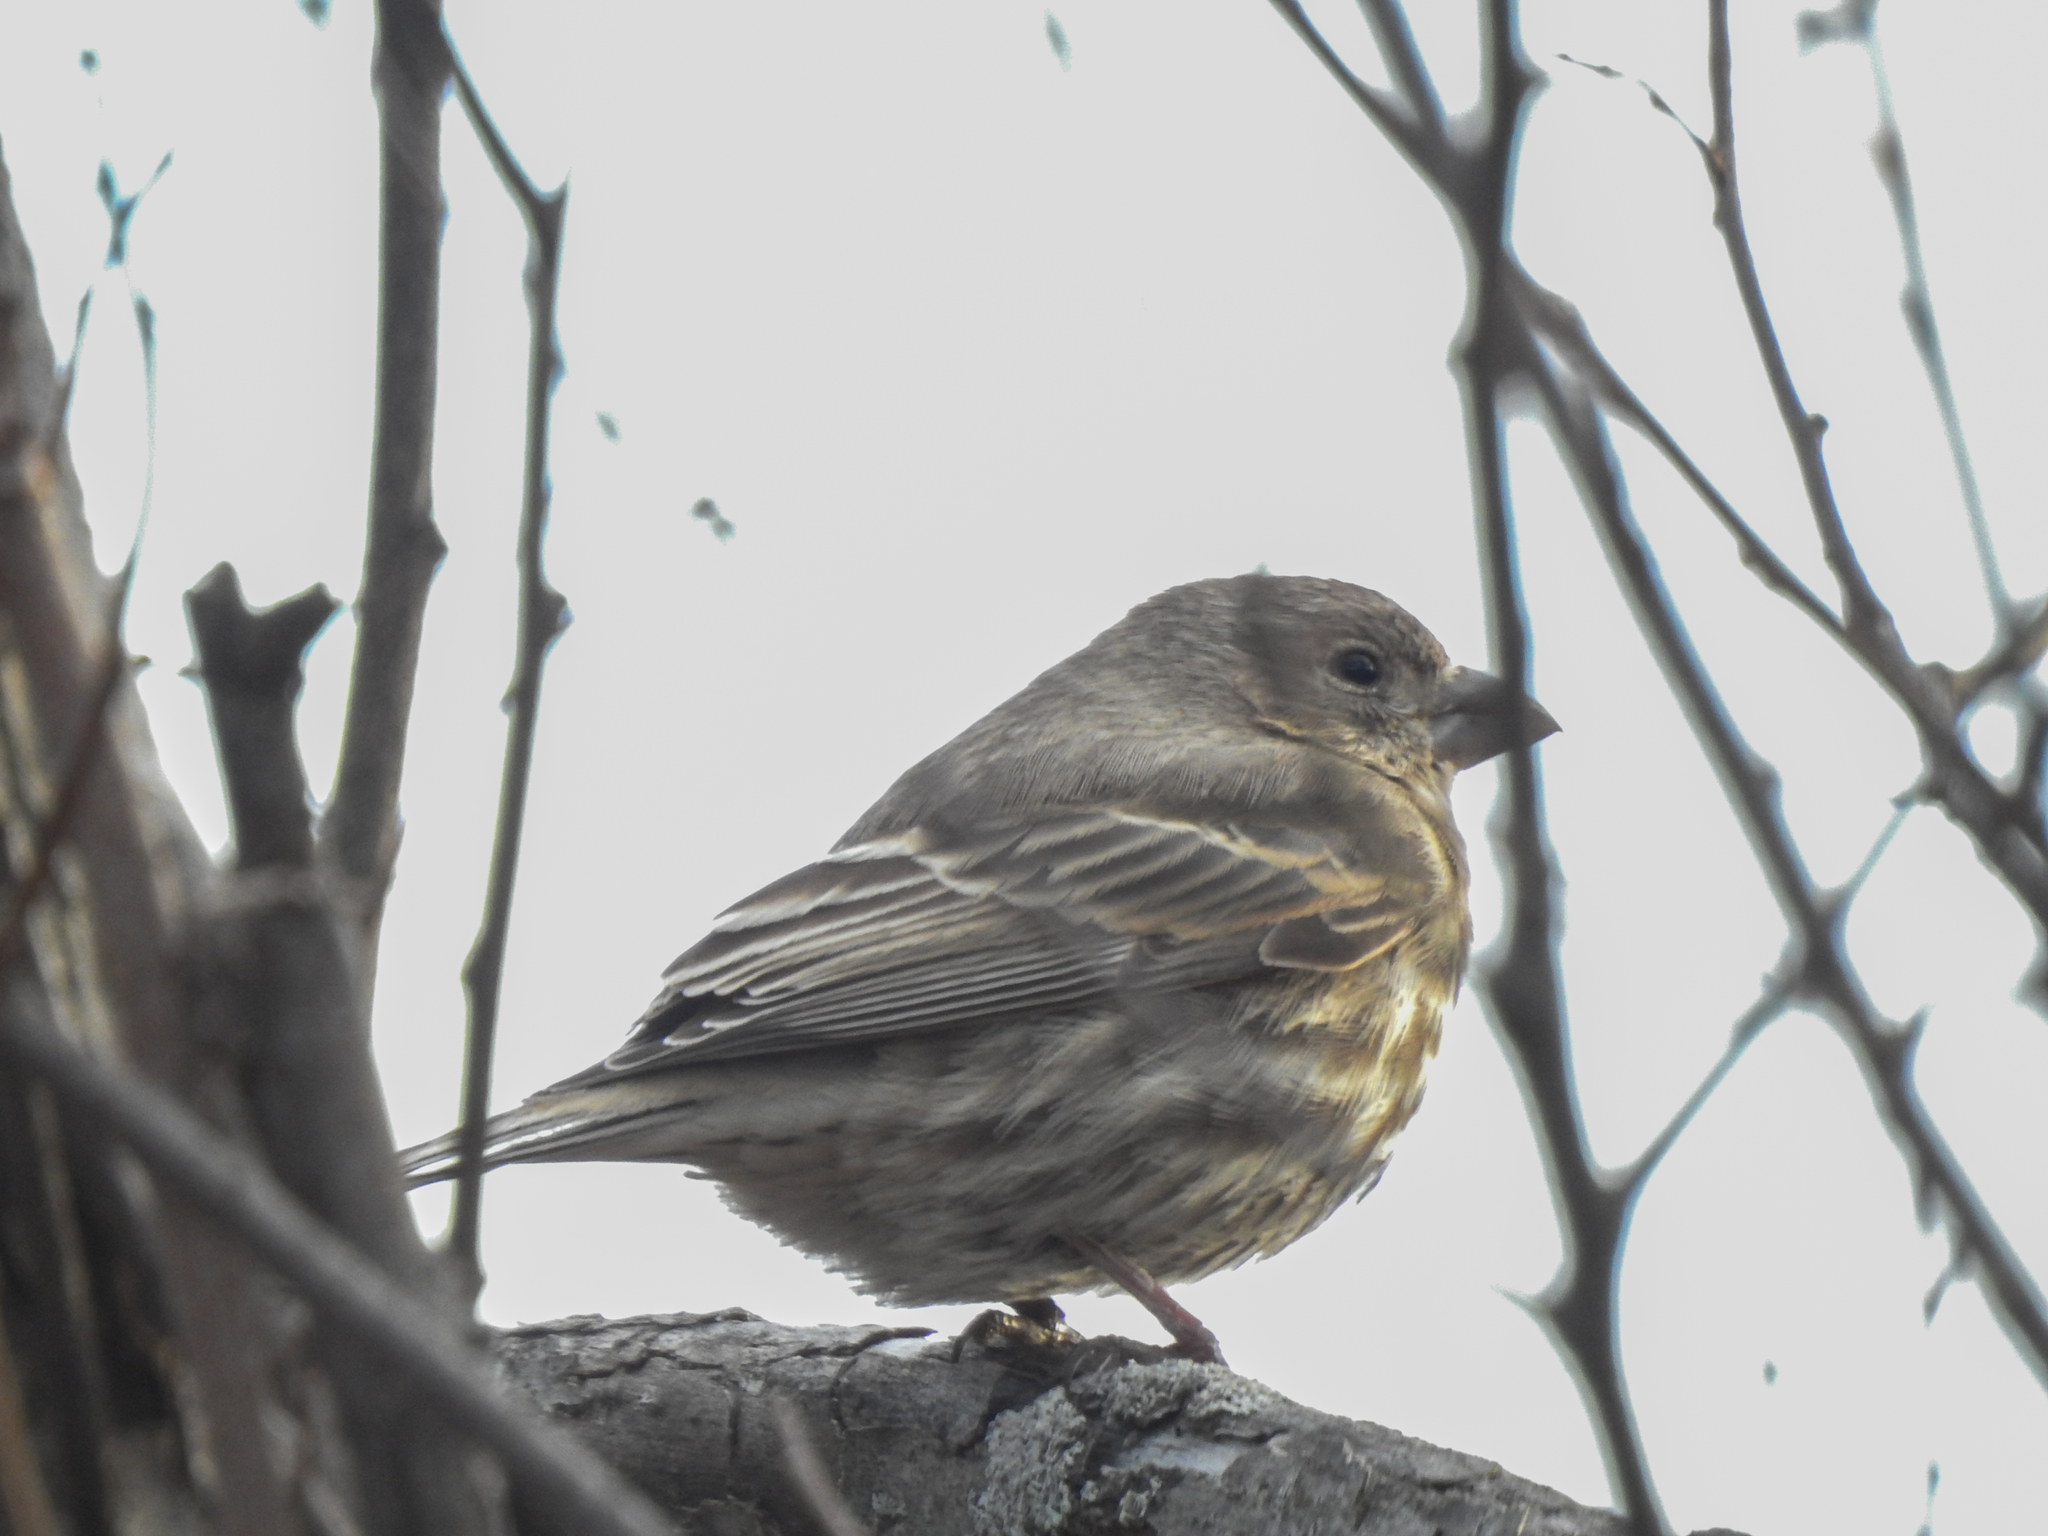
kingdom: Animalia
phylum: Chordata
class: Aves
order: Passeriformes
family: Fringillidae
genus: Haemorhous
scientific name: Haemorhous mexicanus
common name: House finch
